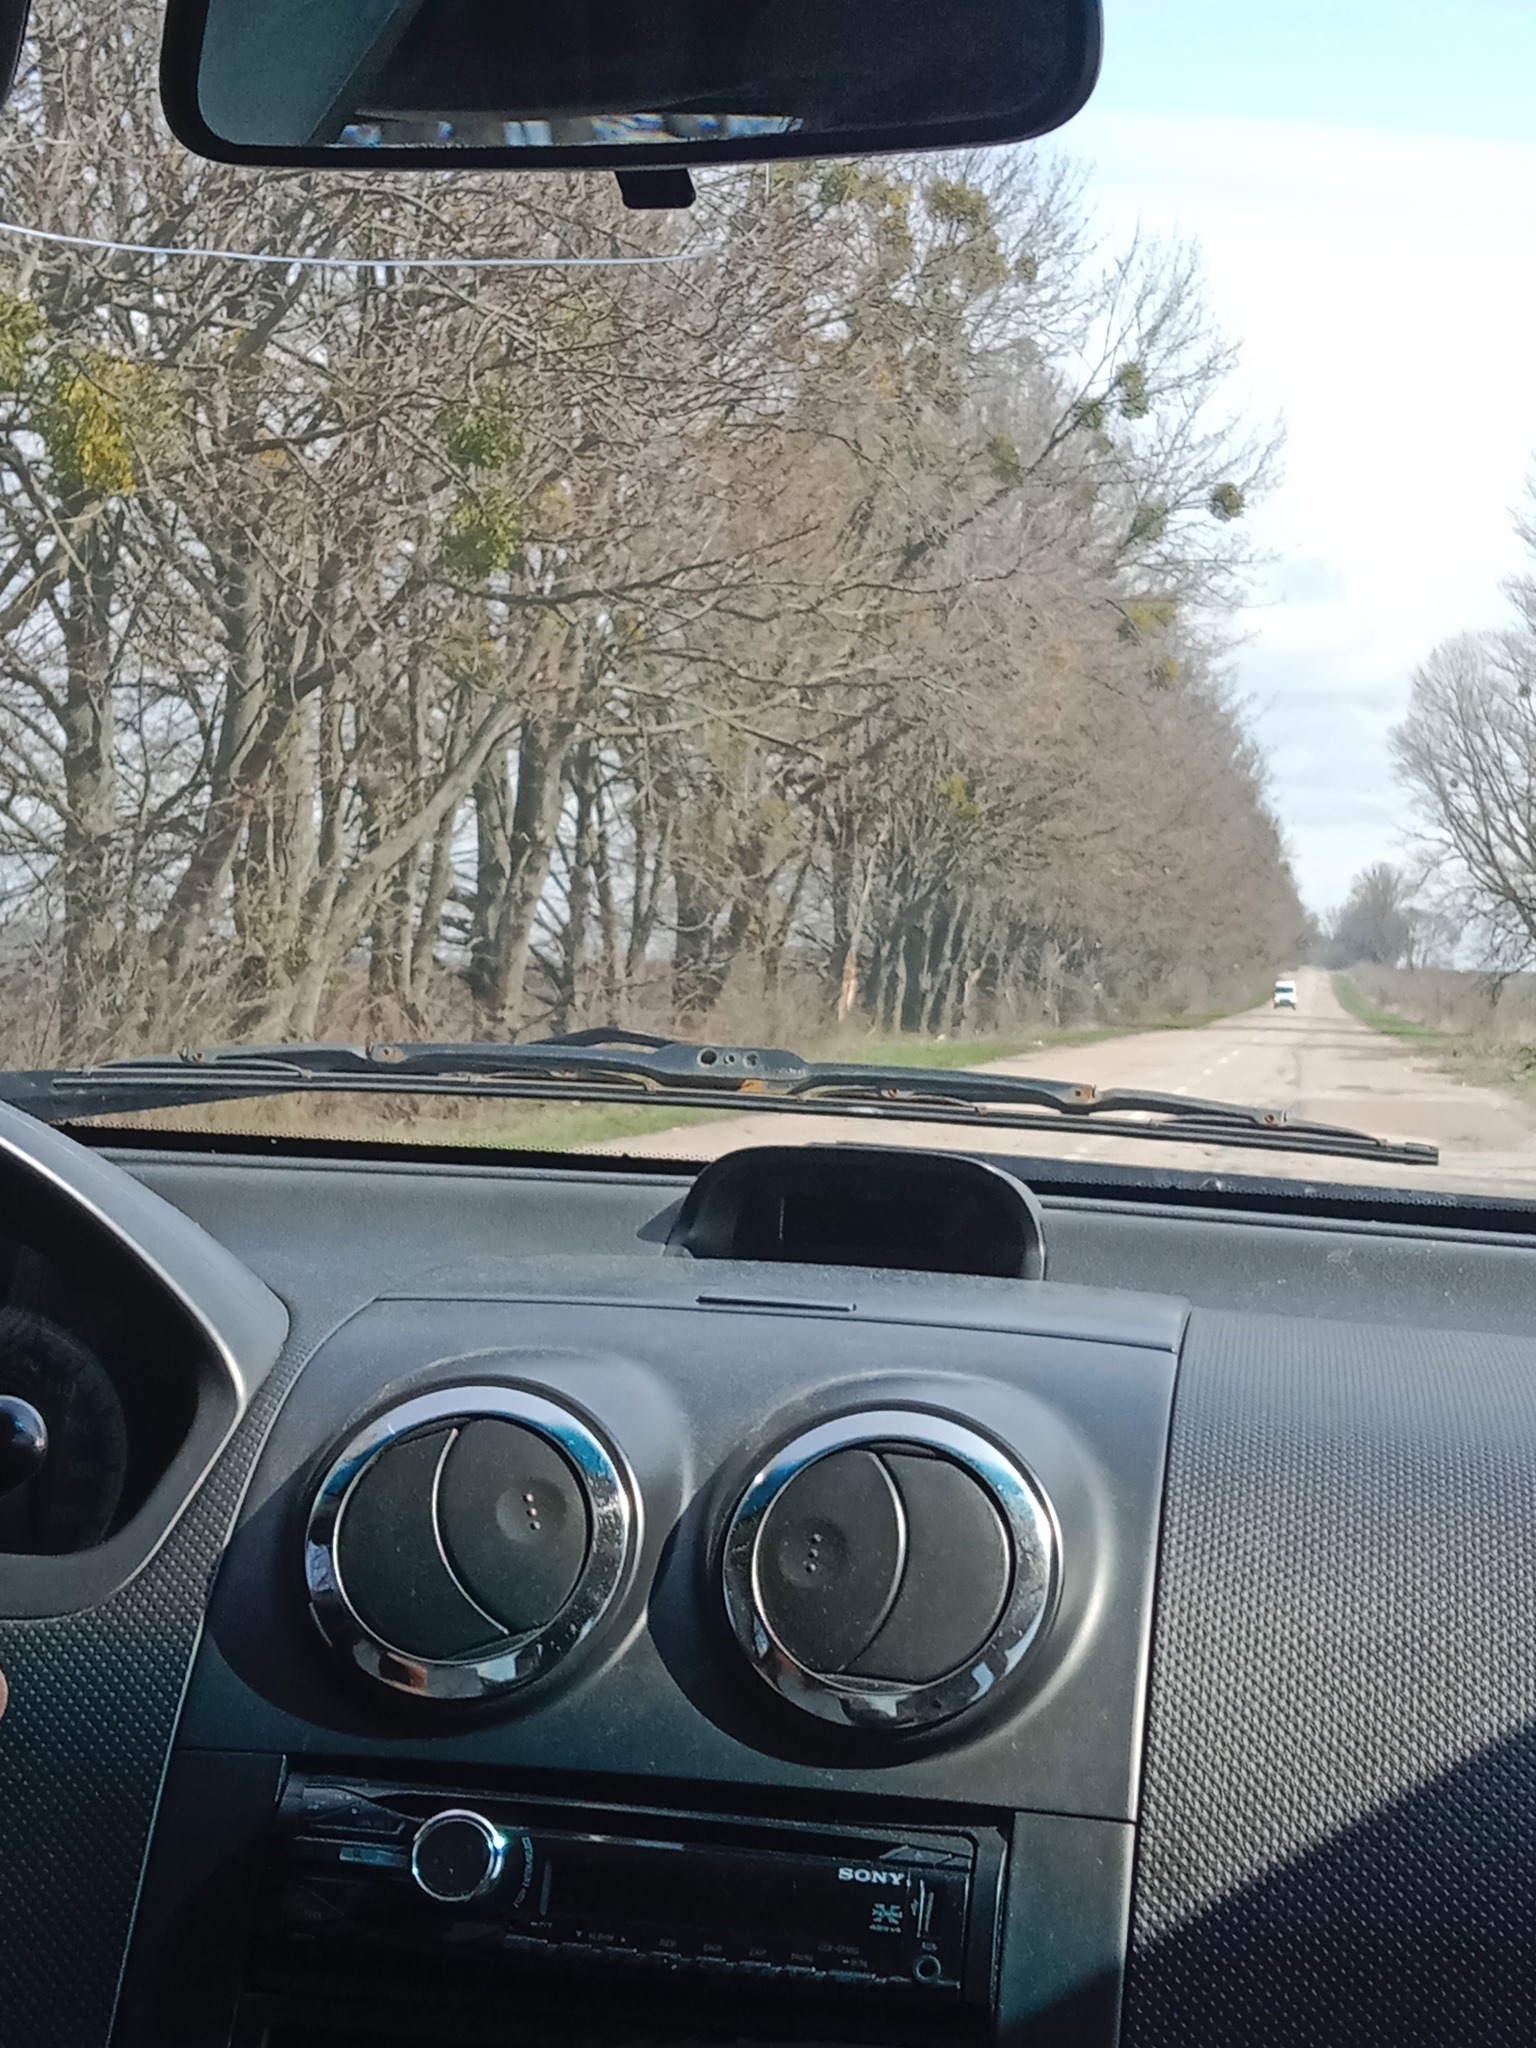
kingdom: Plantae
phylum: Tracheophyta
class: Magnoliopsida
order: Santalales
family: Viscaceae
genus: Viscum
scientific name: Viscum album
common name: Mistletoe
